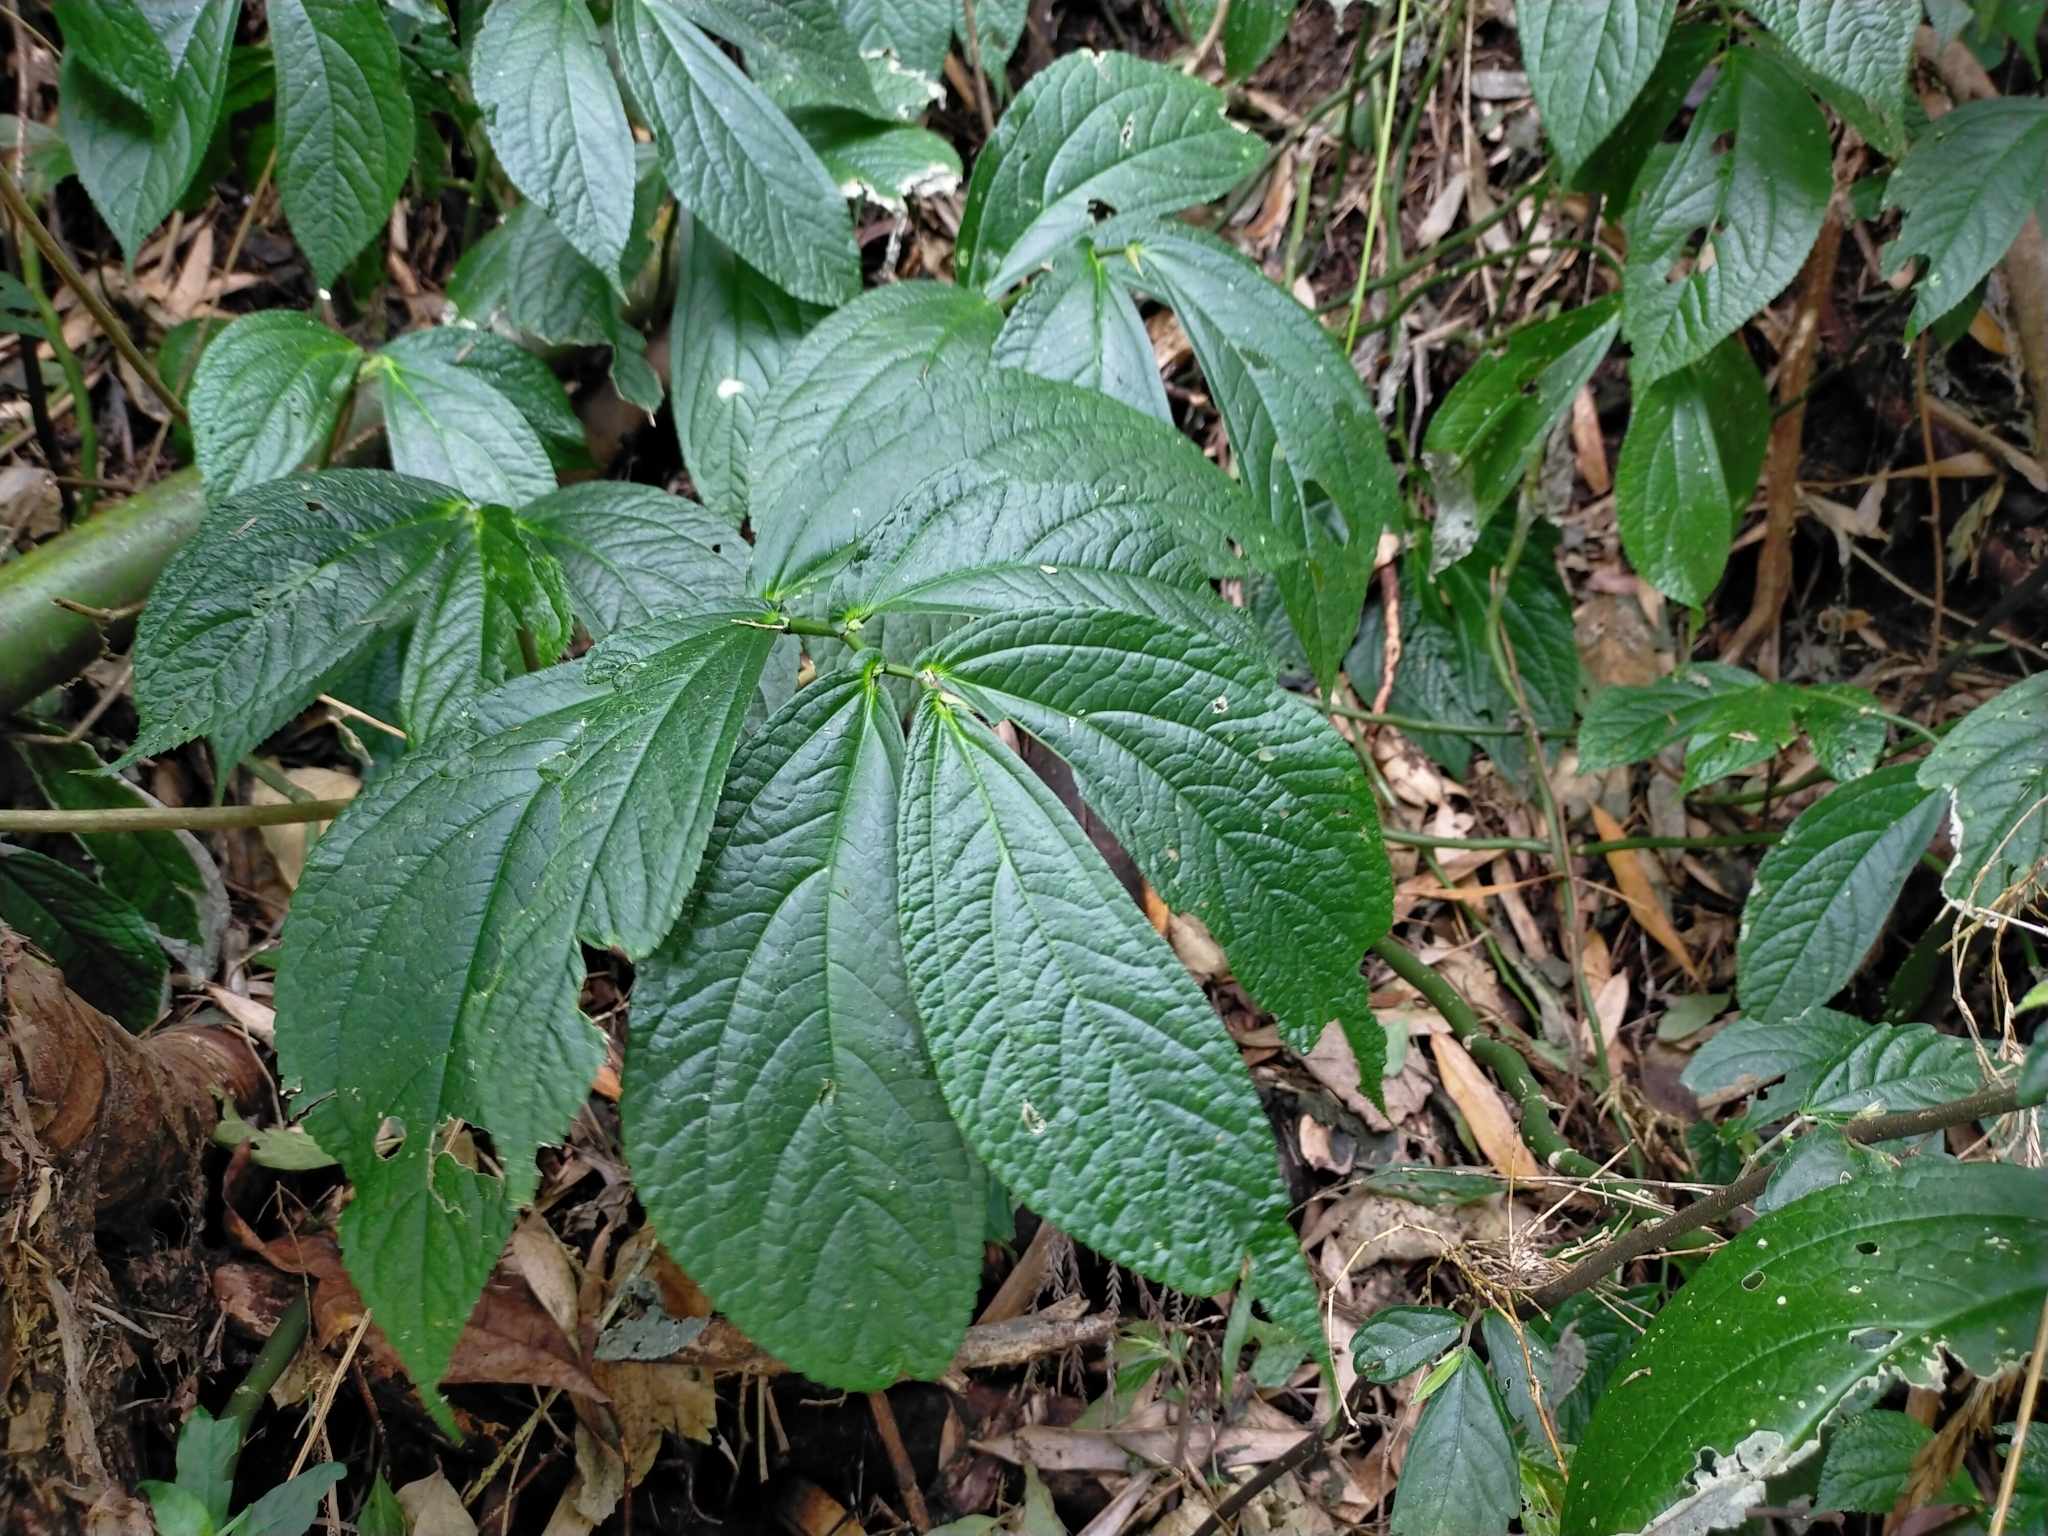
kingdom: Plantae
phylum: Tracheophyta
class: Magnoliopsida
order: Rosales
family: Urticaceae
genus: Elatostema
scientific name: Elatostema platyphyllum
